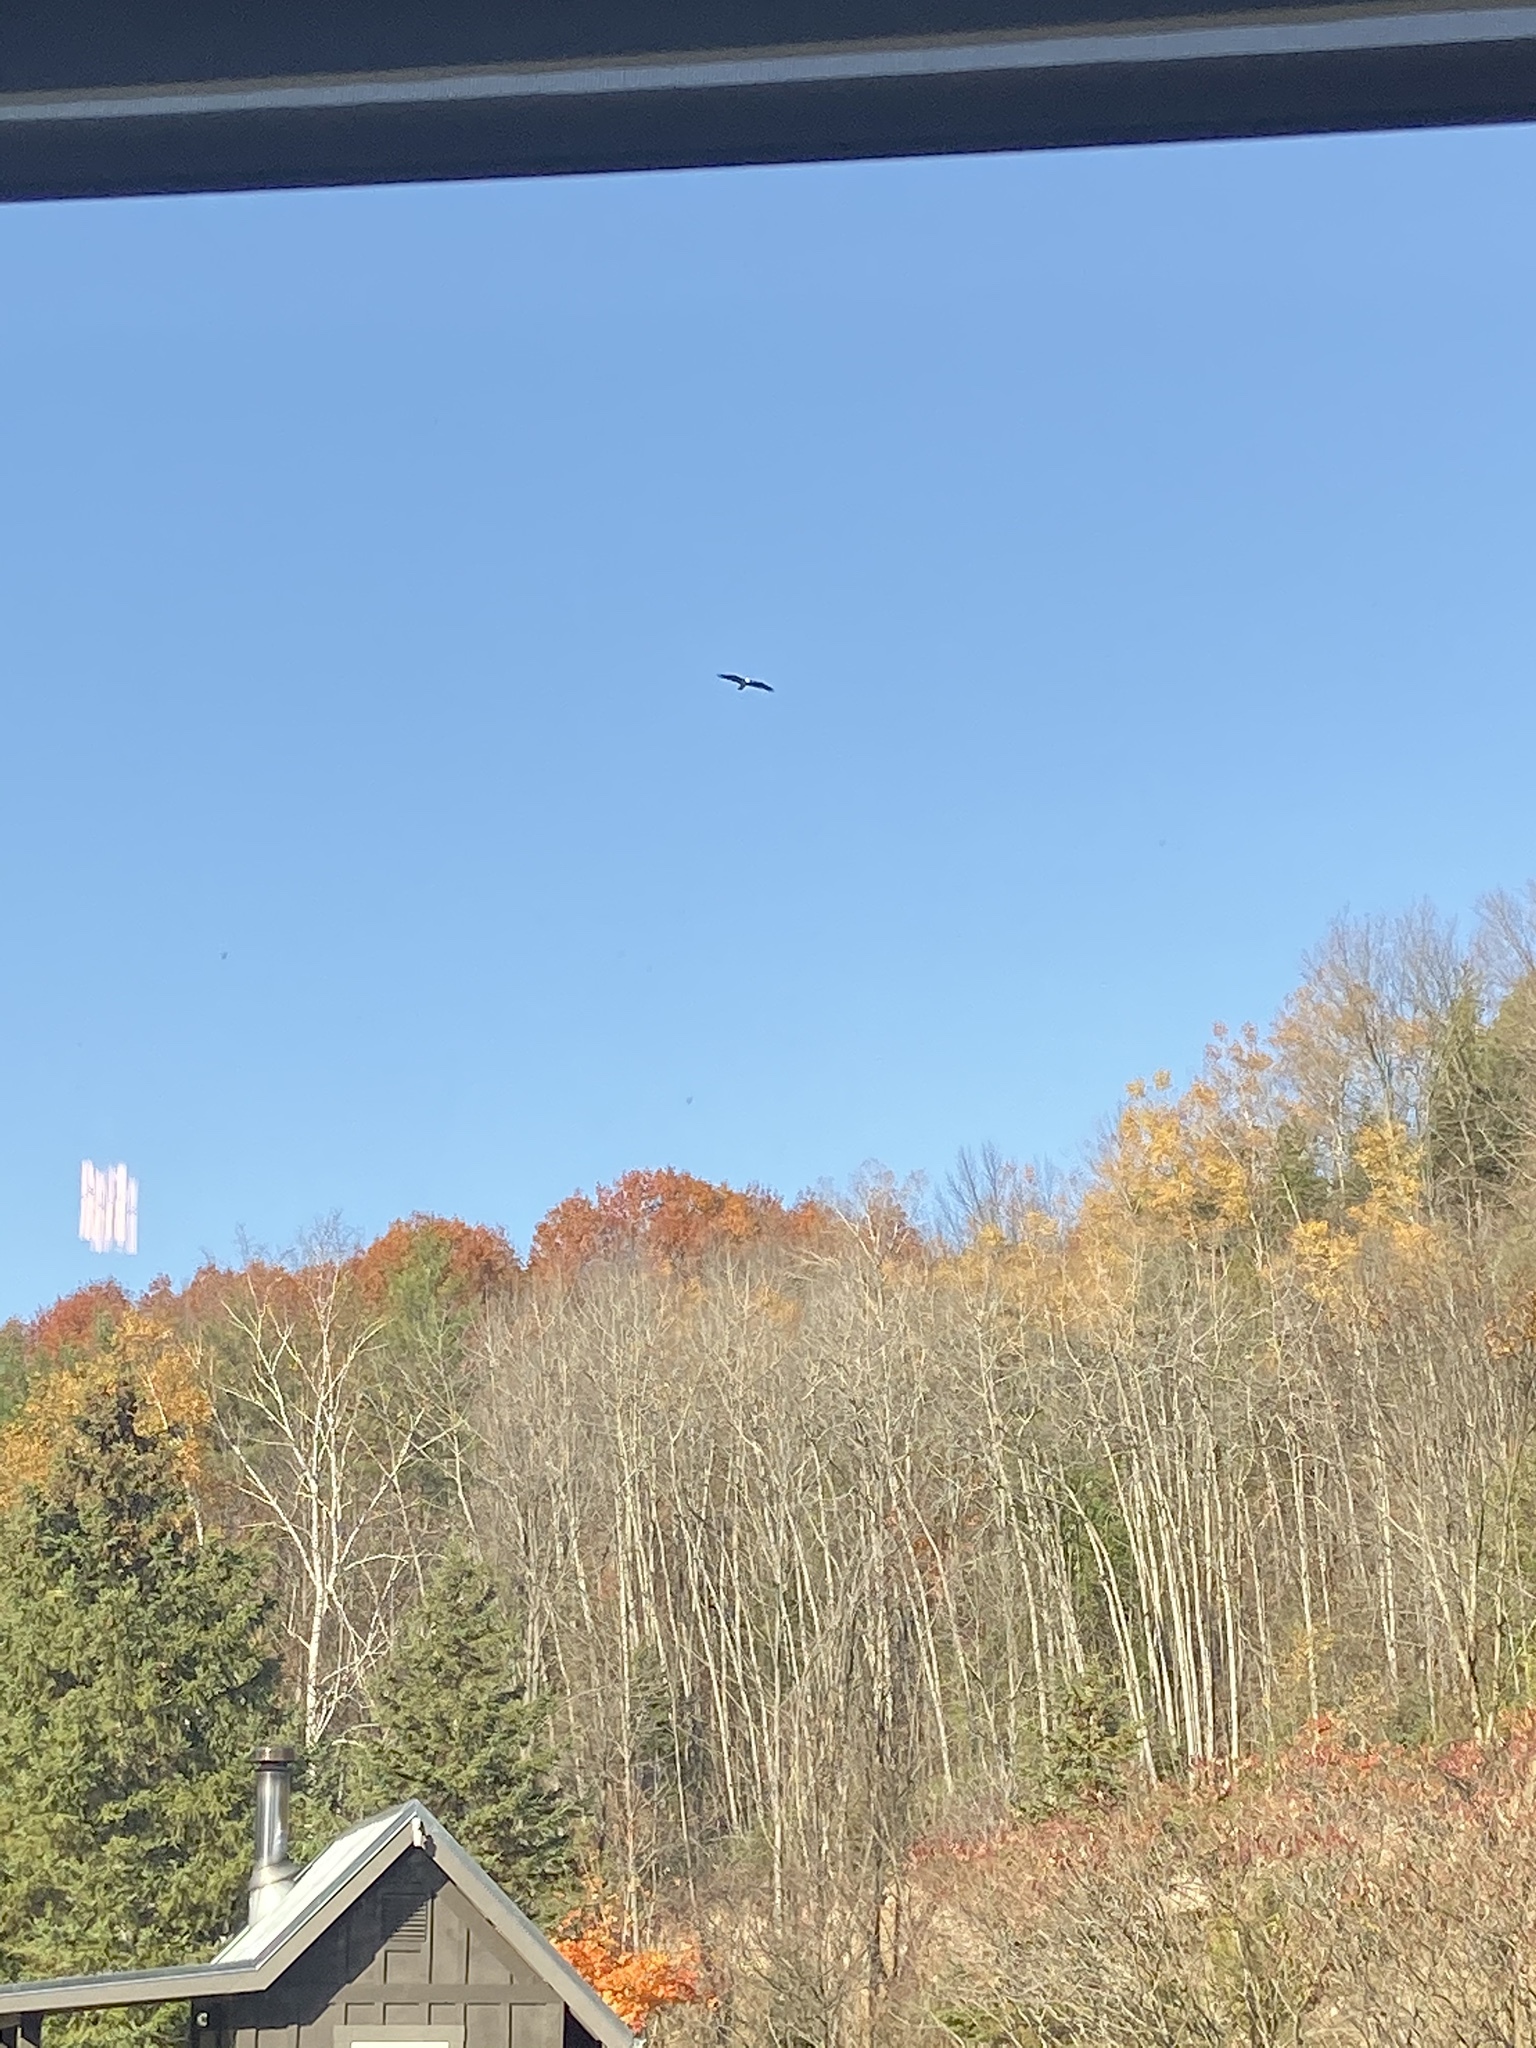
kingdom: Animalia
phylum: Chordata
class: Aves
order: Accipitriformes
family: Accipitridae
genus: Haliaeetus
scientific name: Haliaeetus leucocephalus
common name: Bald eagle
